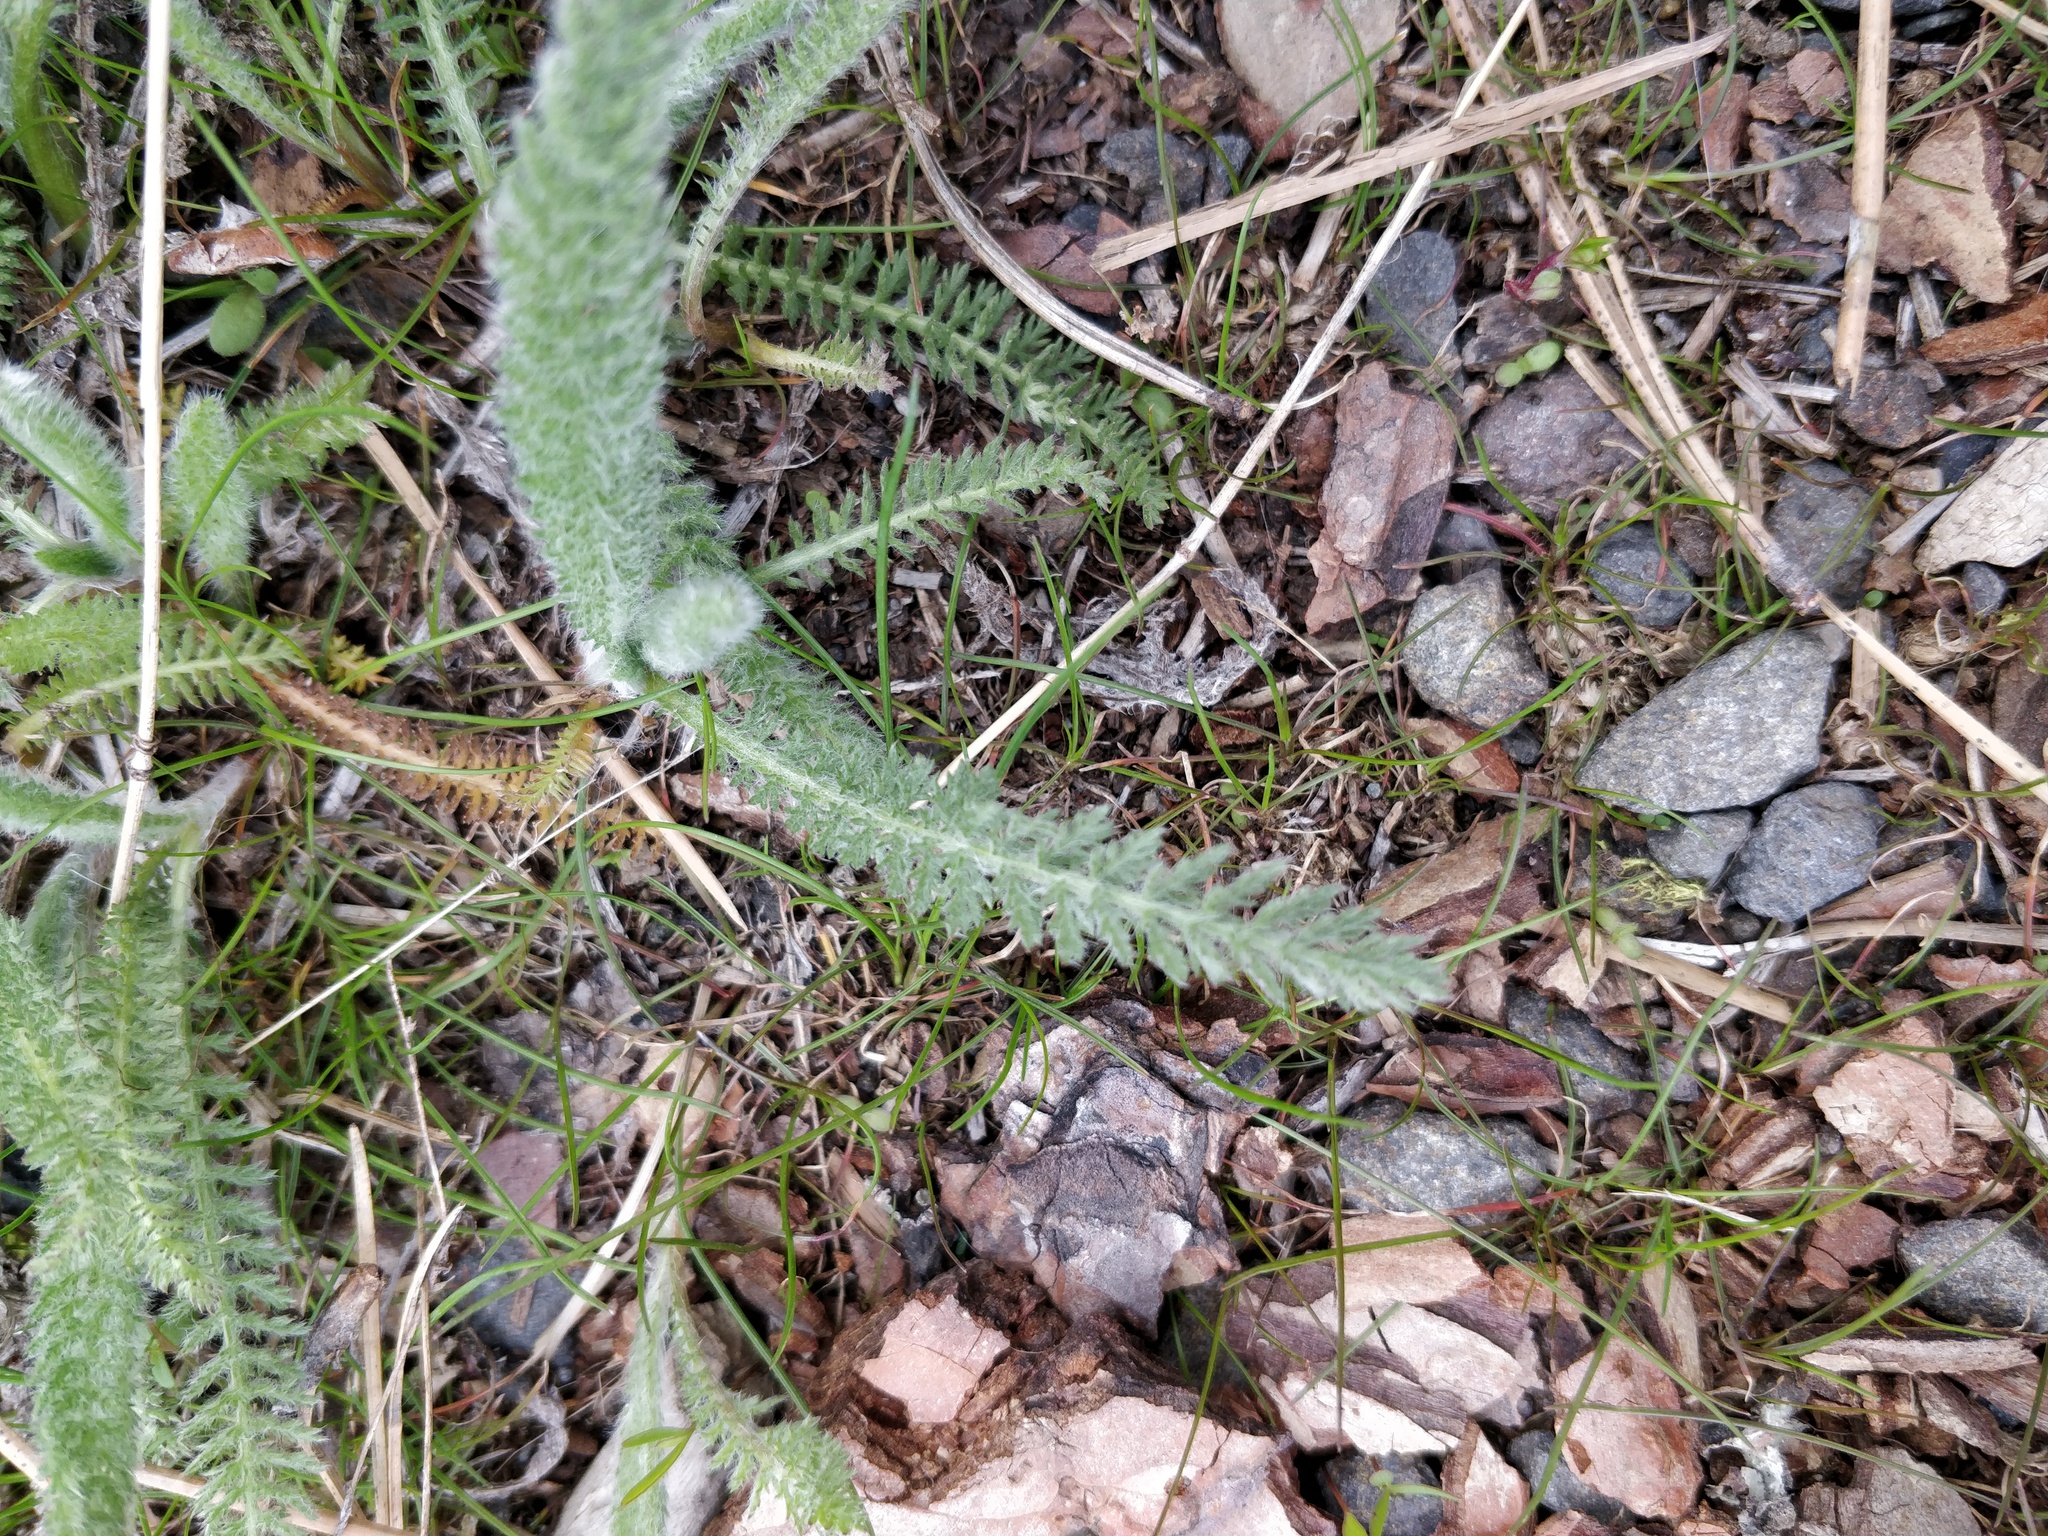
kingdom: Plantae
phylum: Tracheophyta
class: Magnoliopsida
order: Asterales
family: Asteraceae
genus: Achillea
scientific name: Achillea millefolium
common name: Yarrow
